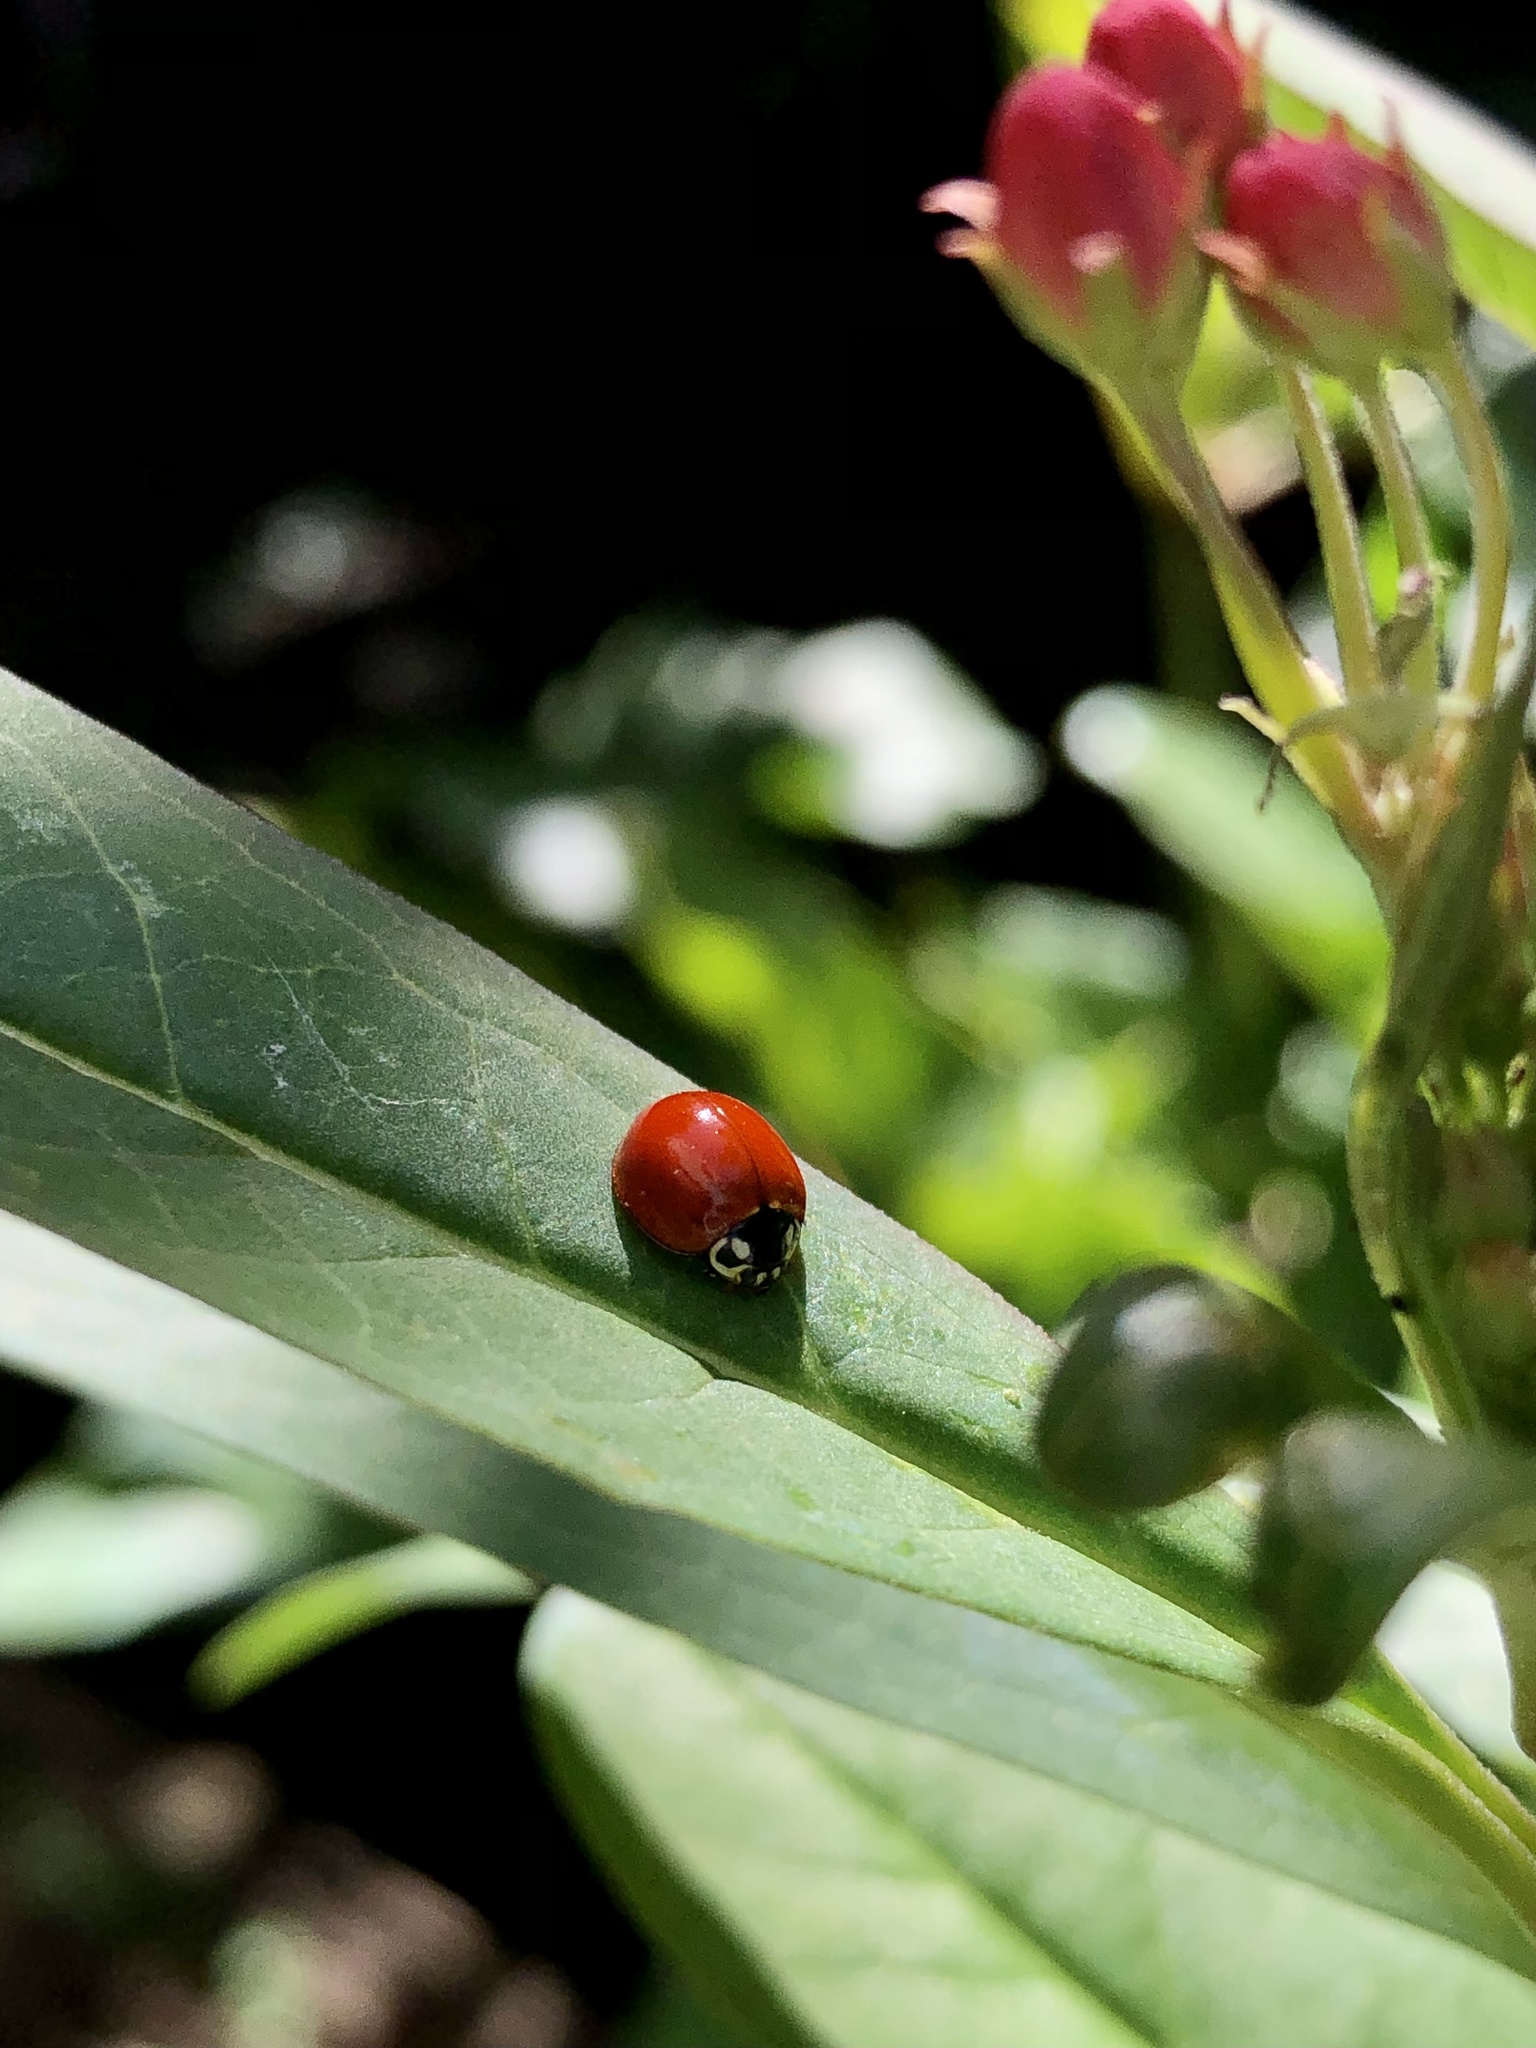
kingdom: Animalia
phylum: Arthropoda
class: Insecta
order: Coleoptera
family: Coccinellidae
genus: Cycloneda
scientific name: Cycloneda sanguinea
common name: Ladybird beetle
